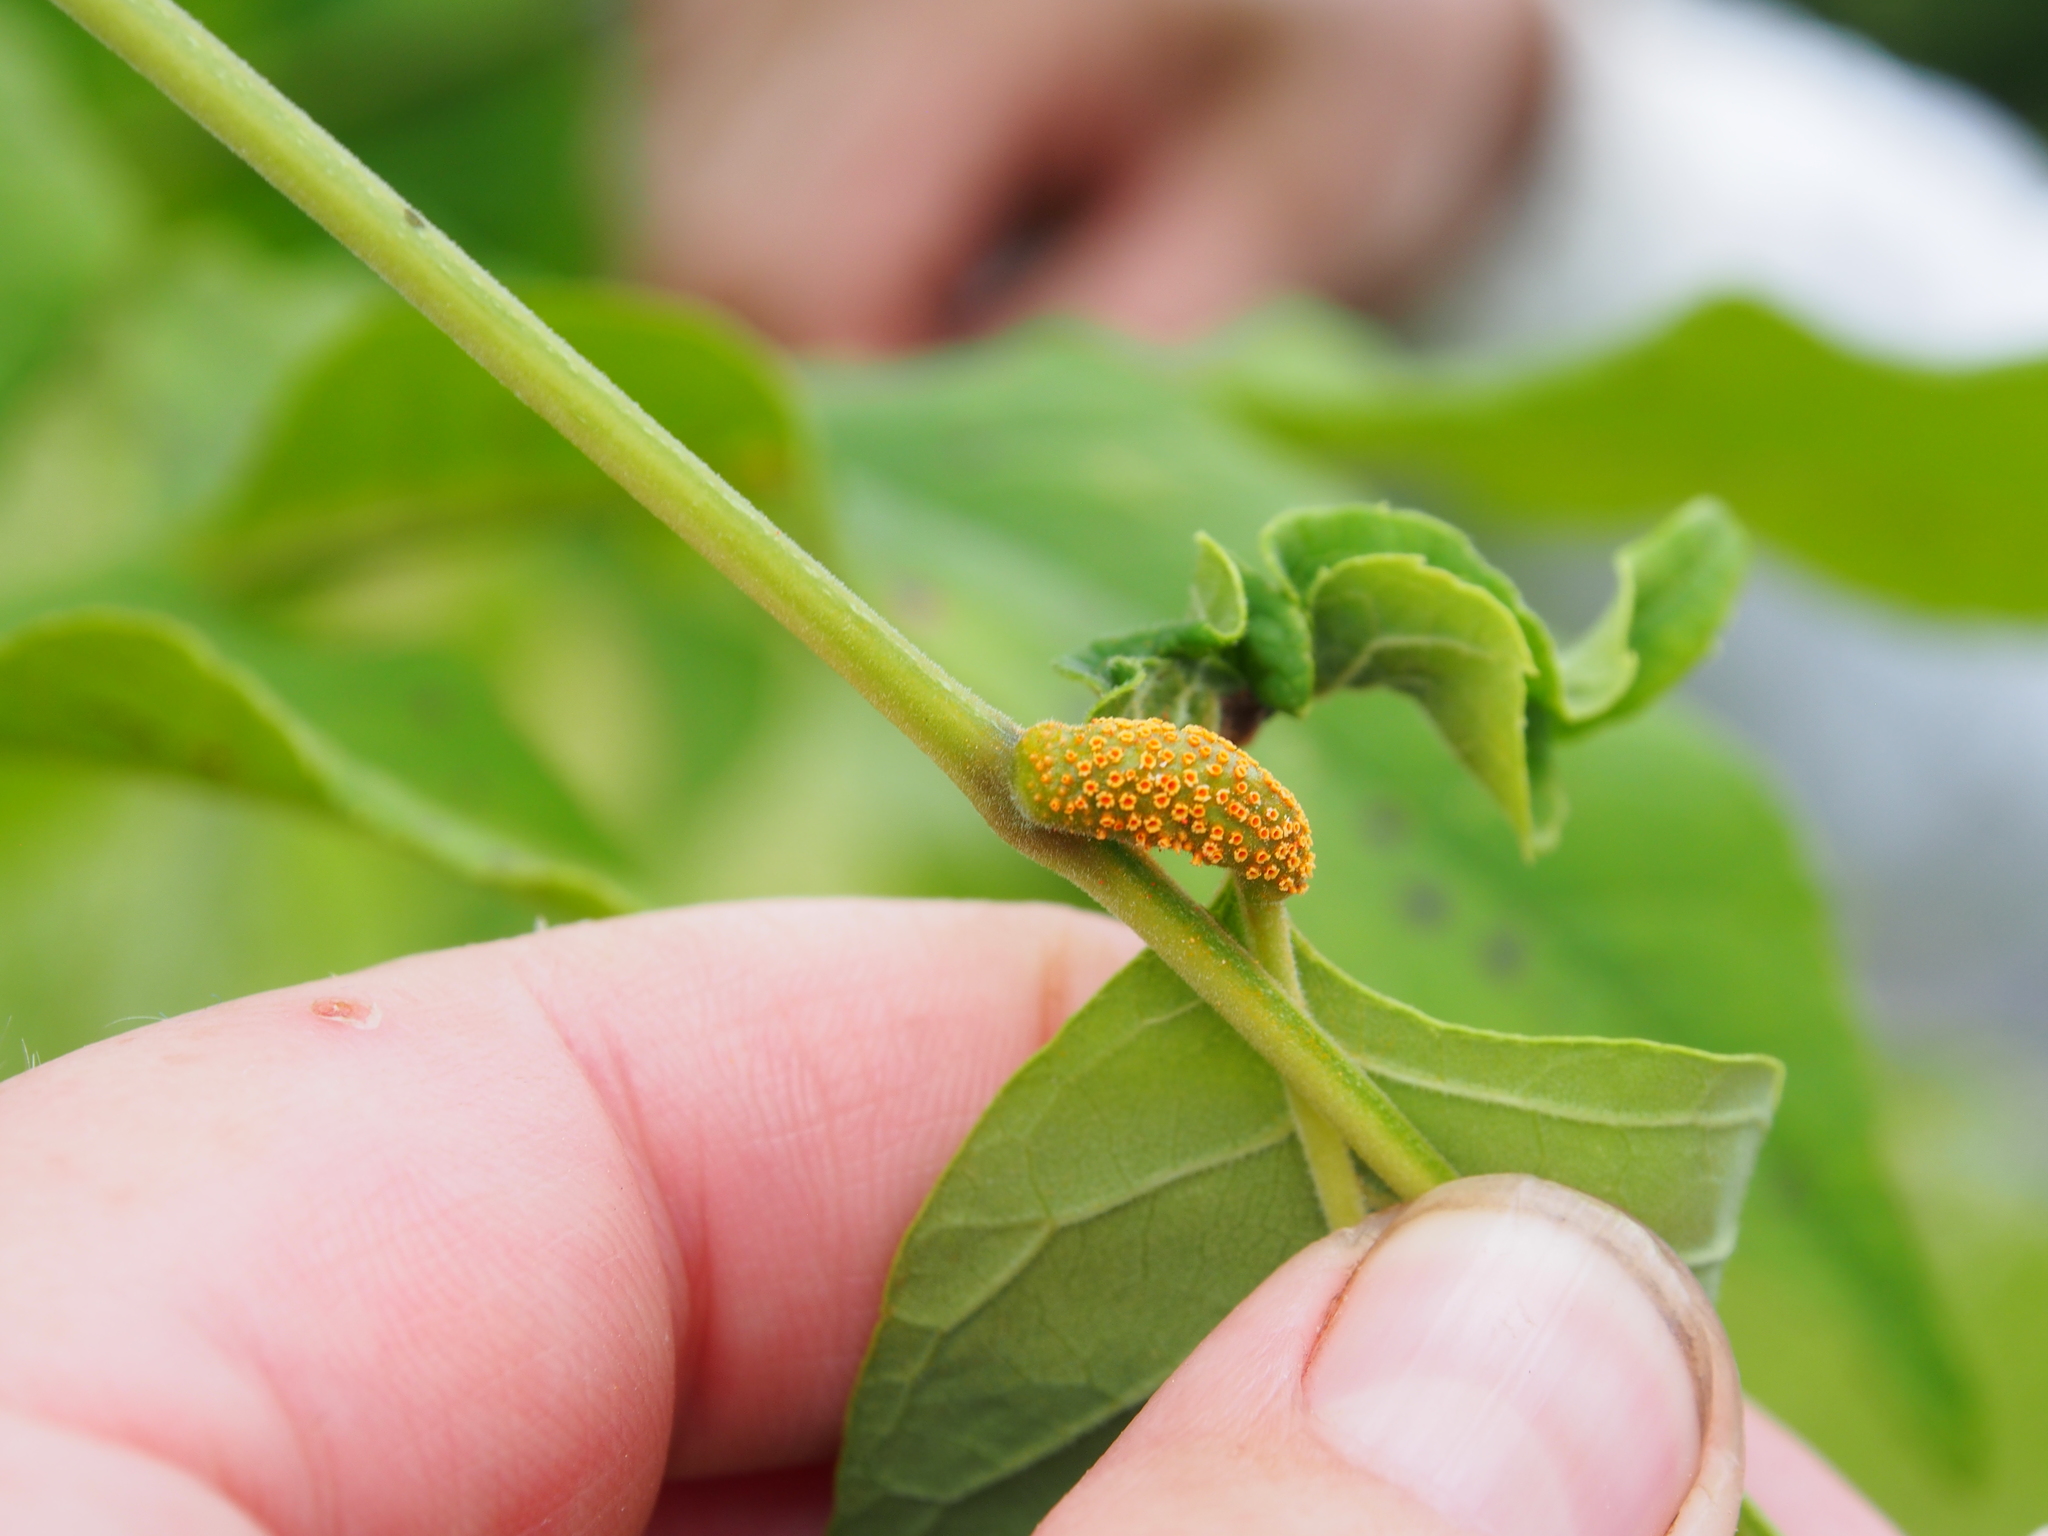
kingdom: Fungi
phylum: Basidiomycota
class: Pucciniomycetes
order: Pucciniales
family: Pucciniaceae
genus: Puccinia
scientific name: Puccinia sparganioidis
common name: Ash rust
